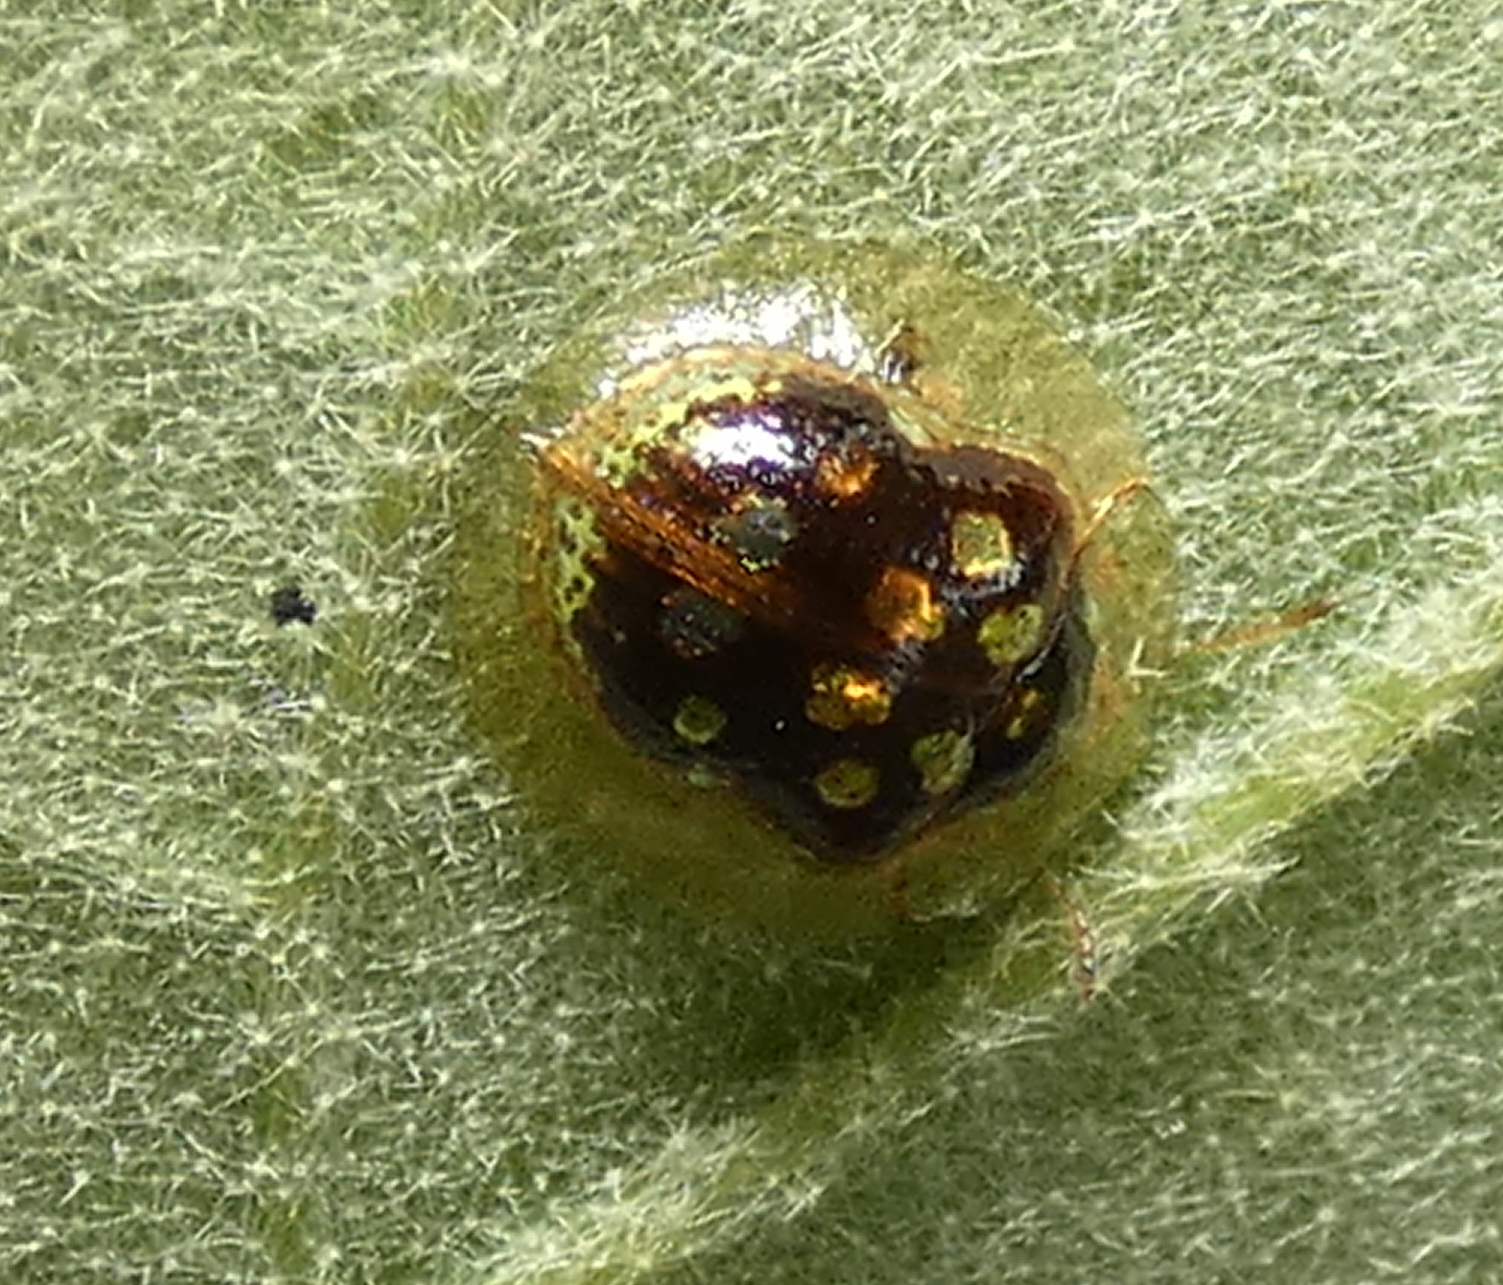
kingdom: Animalia
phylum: Arthropoda
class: Insecta
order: Coleoptera
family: Chrysomelidae
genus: Plagiometriona
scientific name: Plagiometriona microcera
